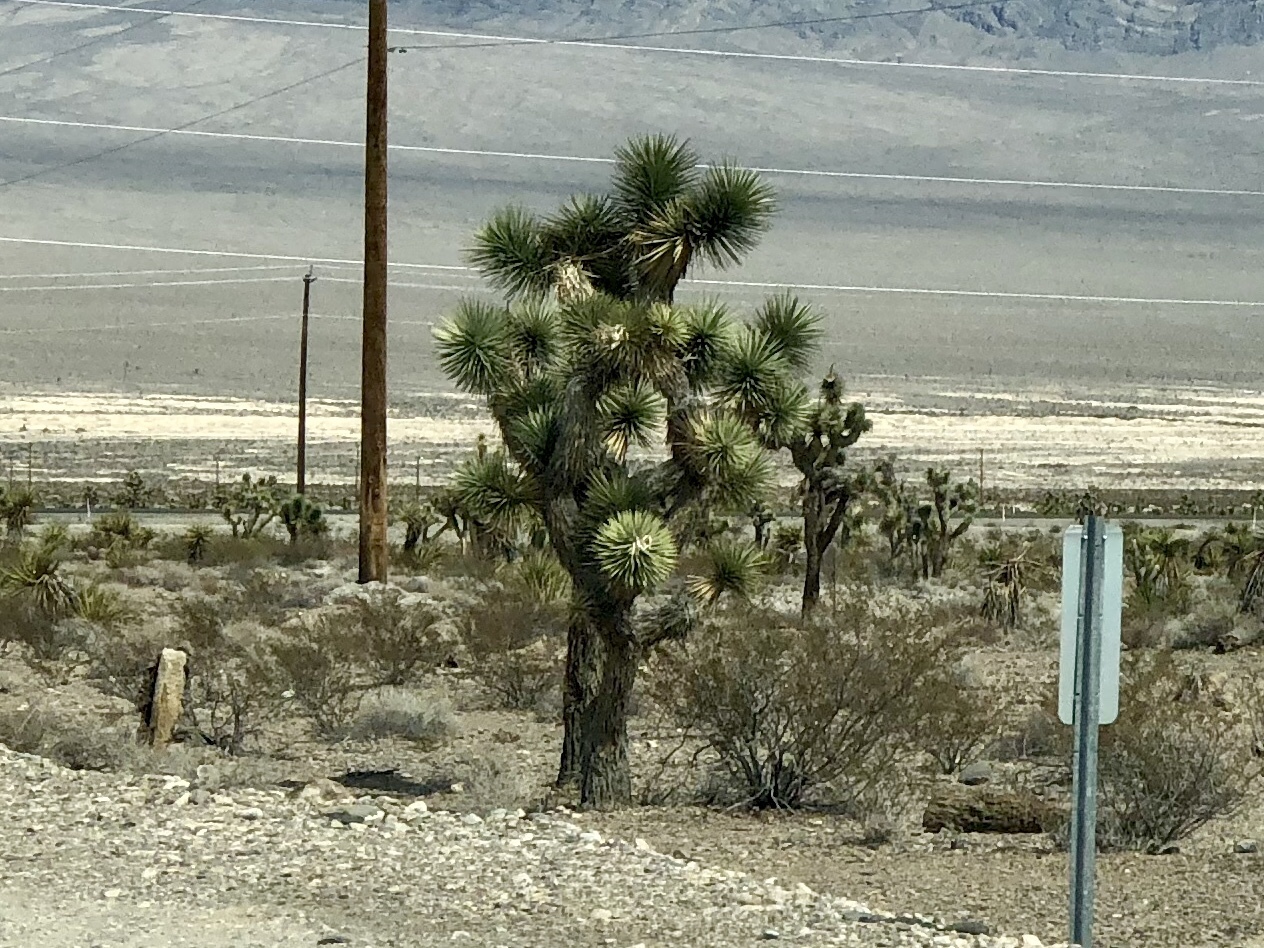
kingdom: Plantae
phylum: Tracheophyta
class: Liliopsida
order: Asparagales
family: Asparagaceae
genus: Yucca
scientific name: Yucca brevifolia
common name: Joshua tree
